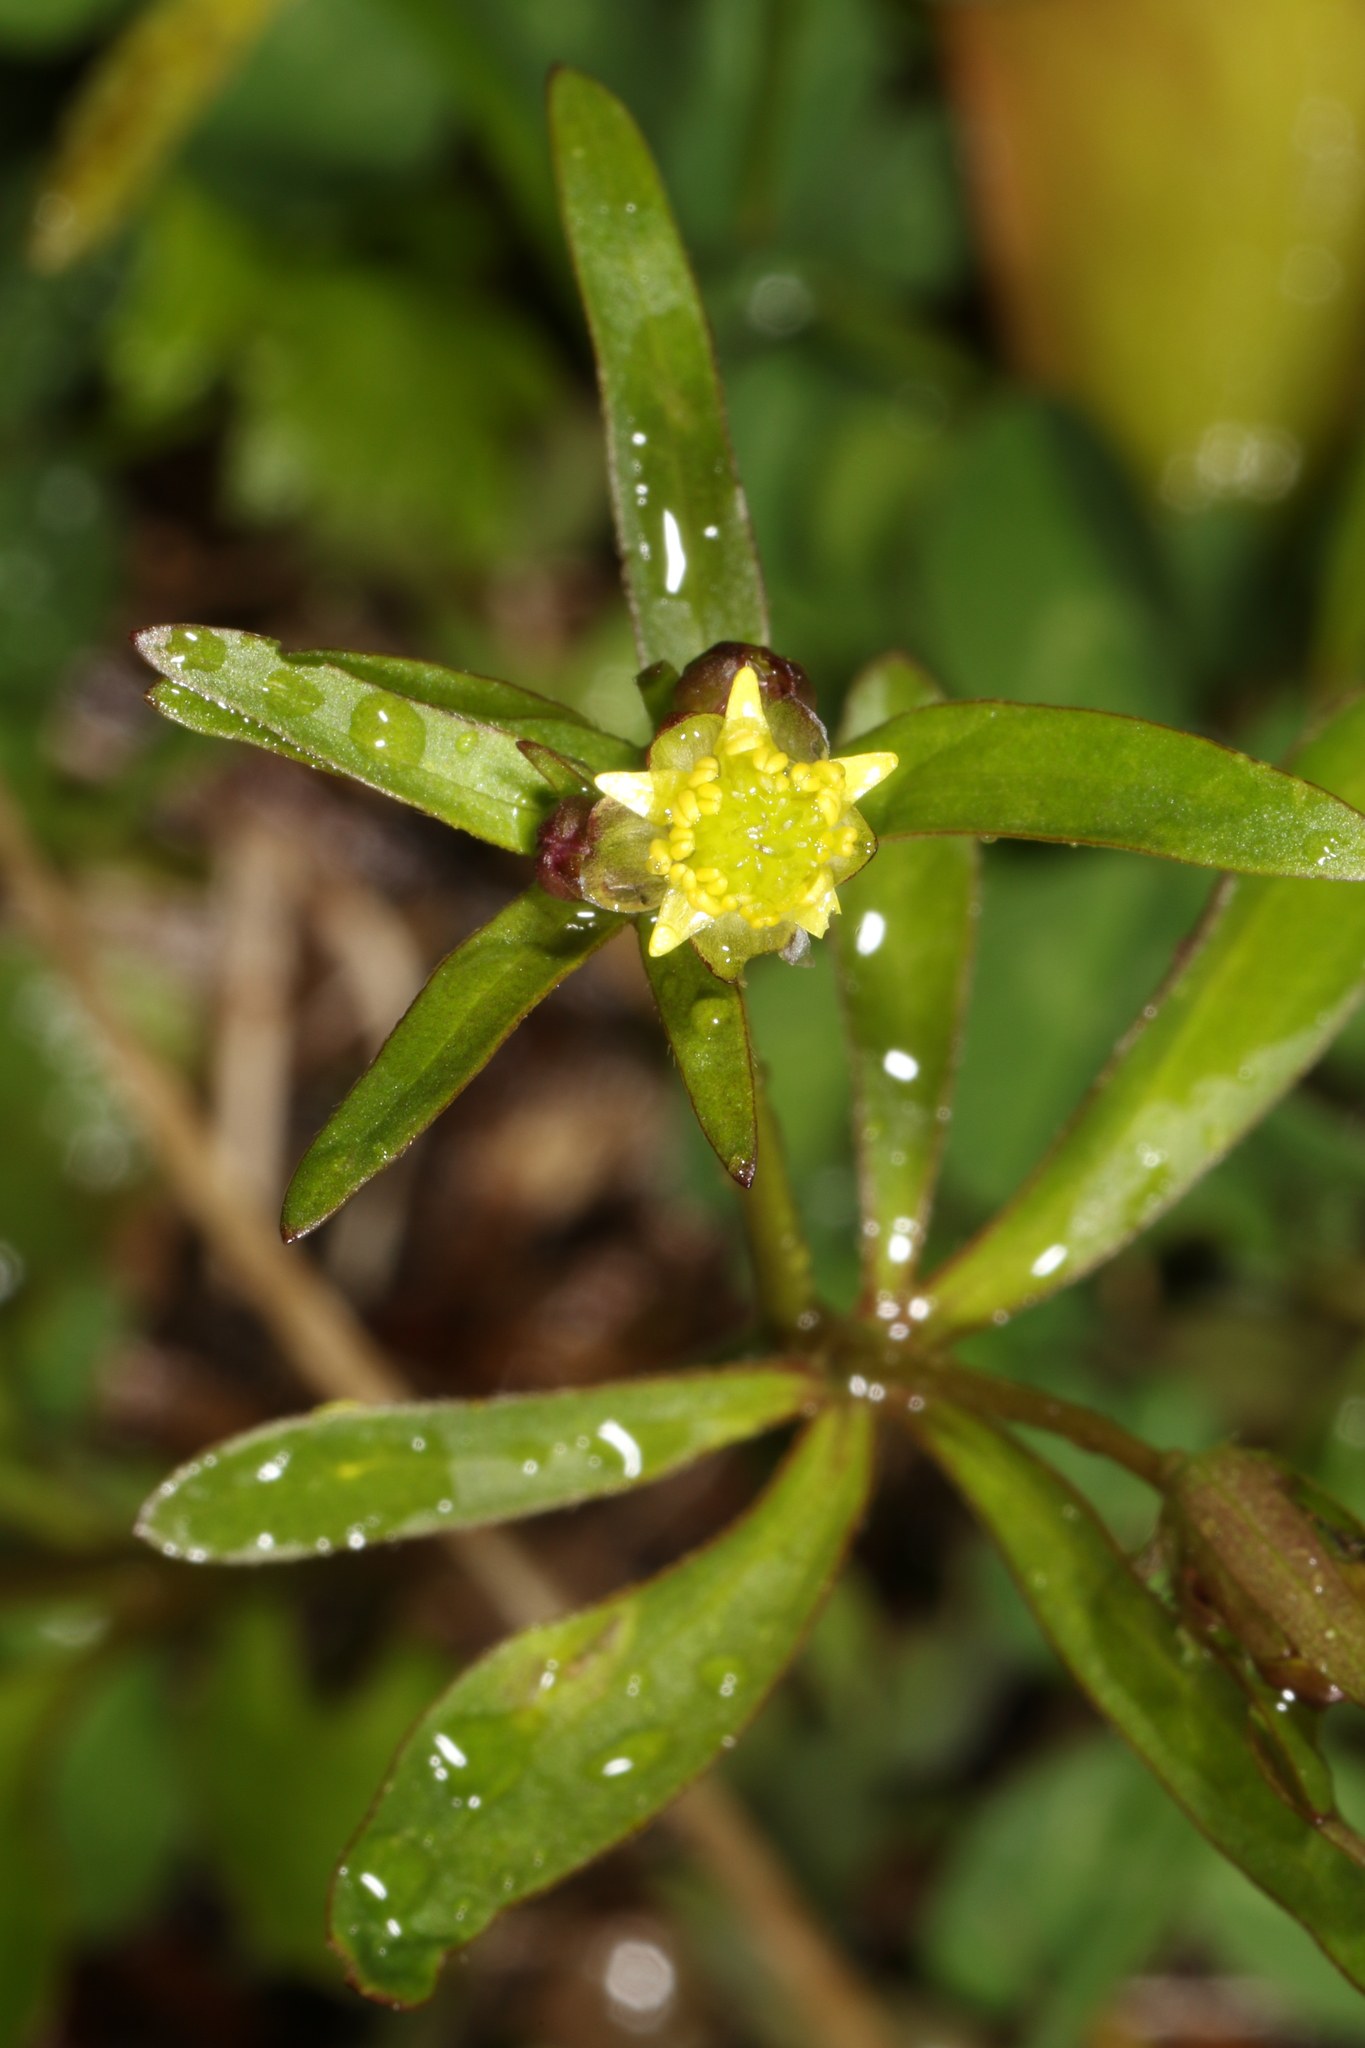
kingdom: Plantae
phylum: Tracheophyta
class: Magnoliopsida
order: Ranunculales
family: Ranunculaceae
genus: Ranunculus
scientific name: Ranunculus abortivus
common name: Early wood buttercup
